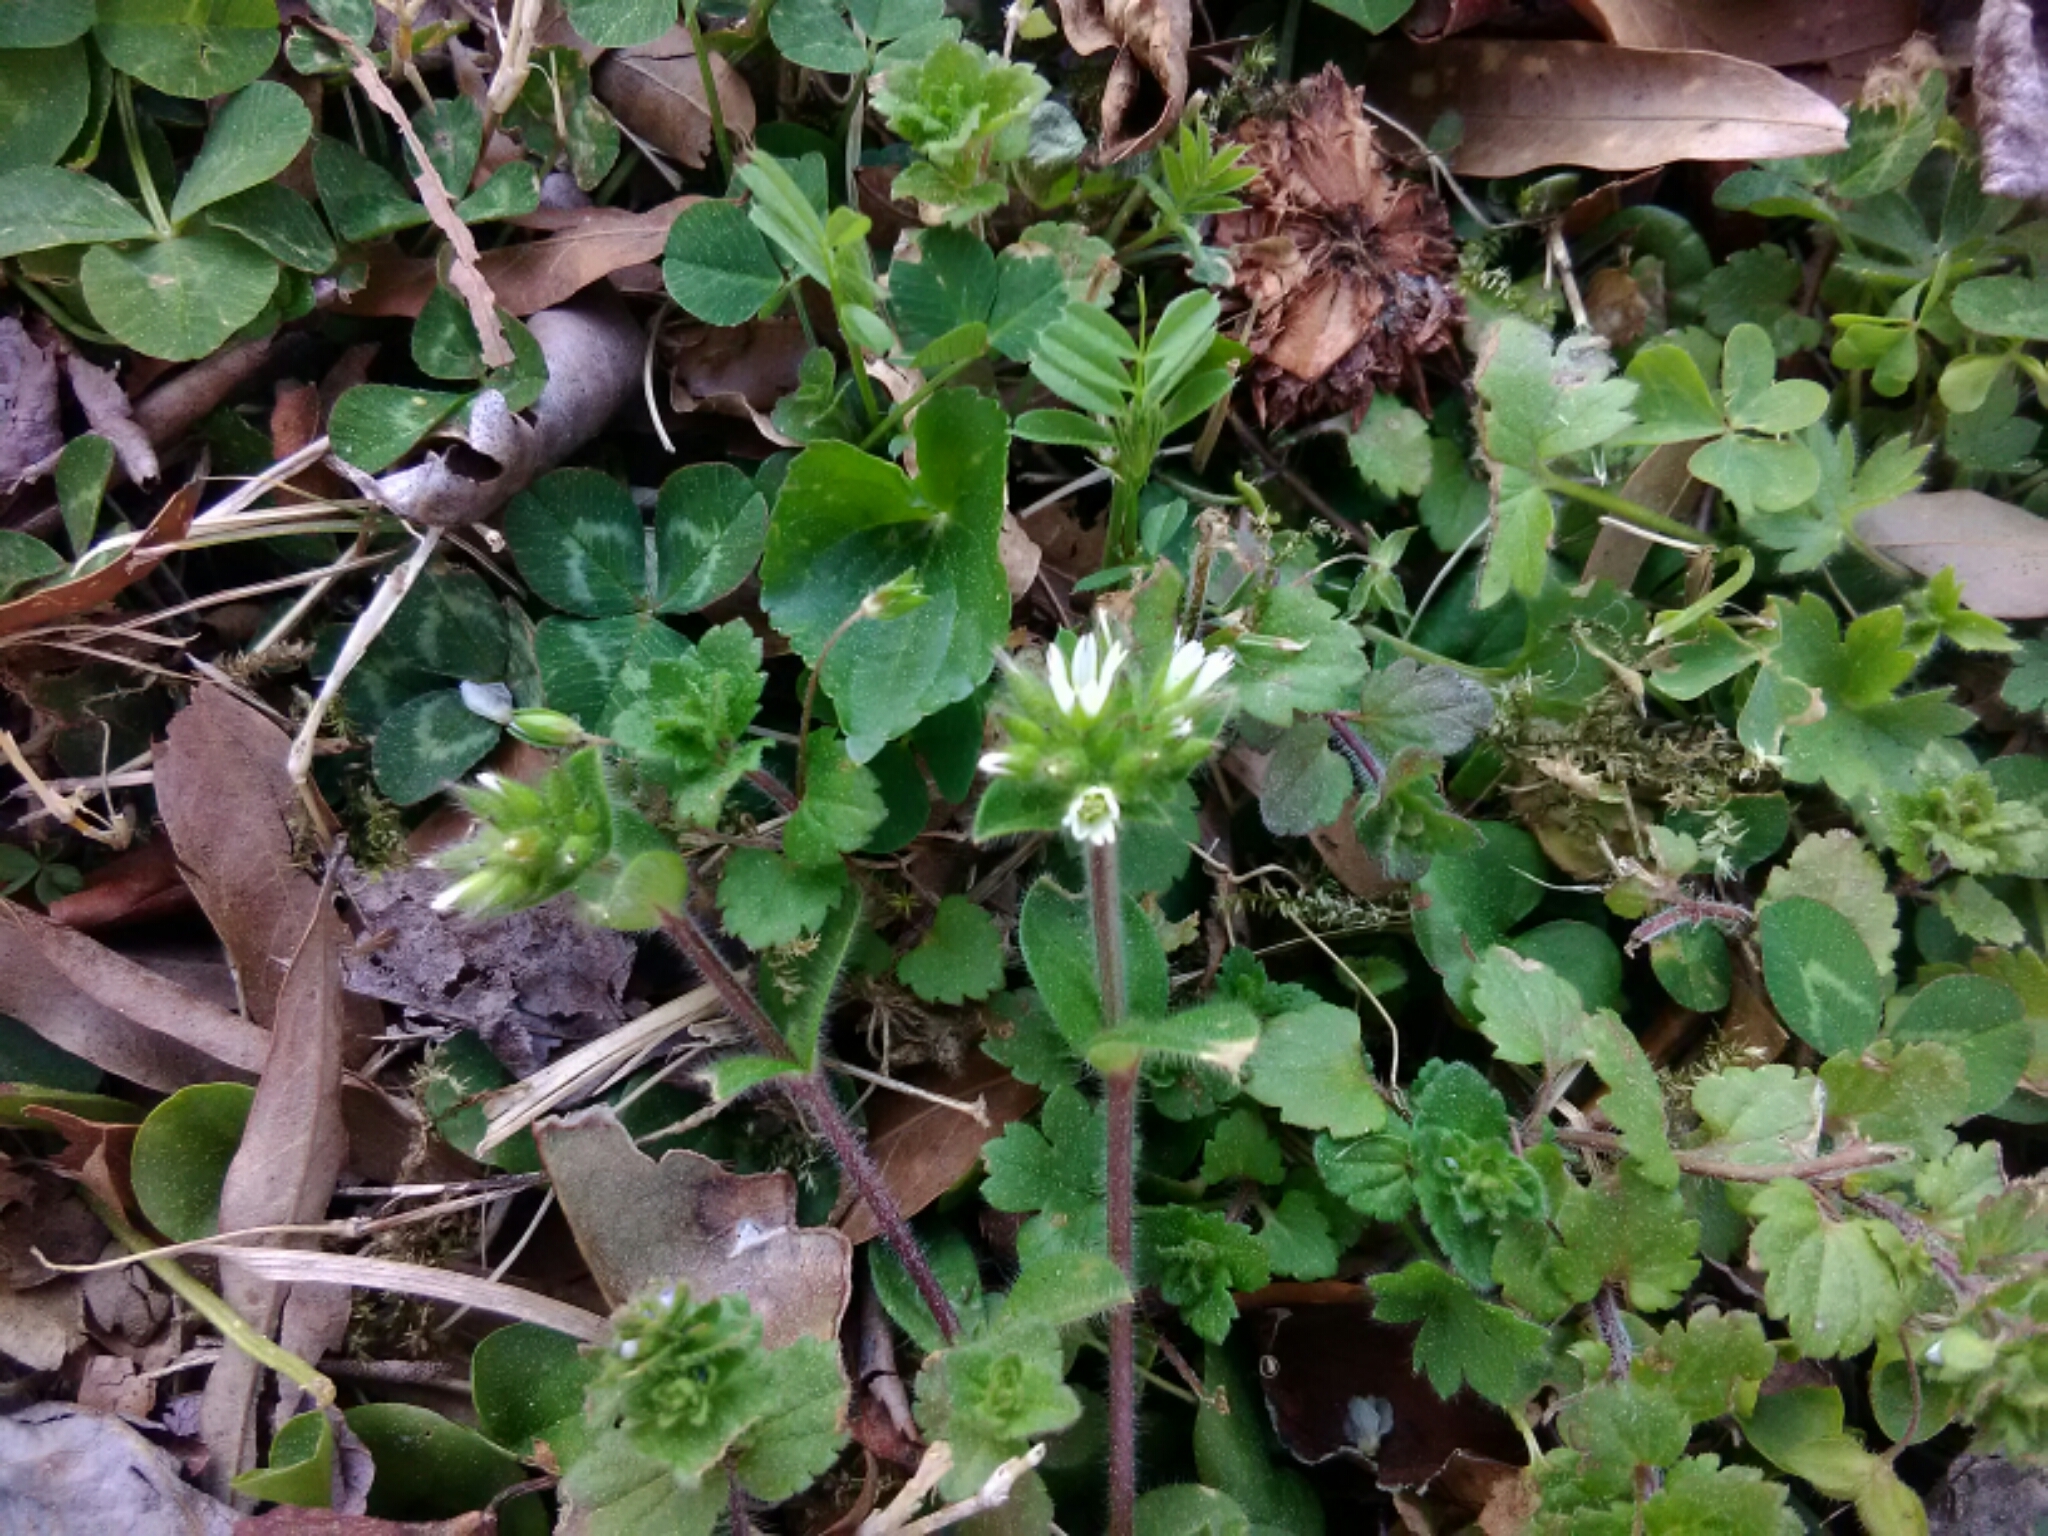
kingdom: Plantae
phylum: Tracheophyta
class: Magnoliopsida
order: Caryophyllales
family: Caryophyllaceae
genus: Stellaria
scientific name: Stellaria media
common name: Common chickweed
